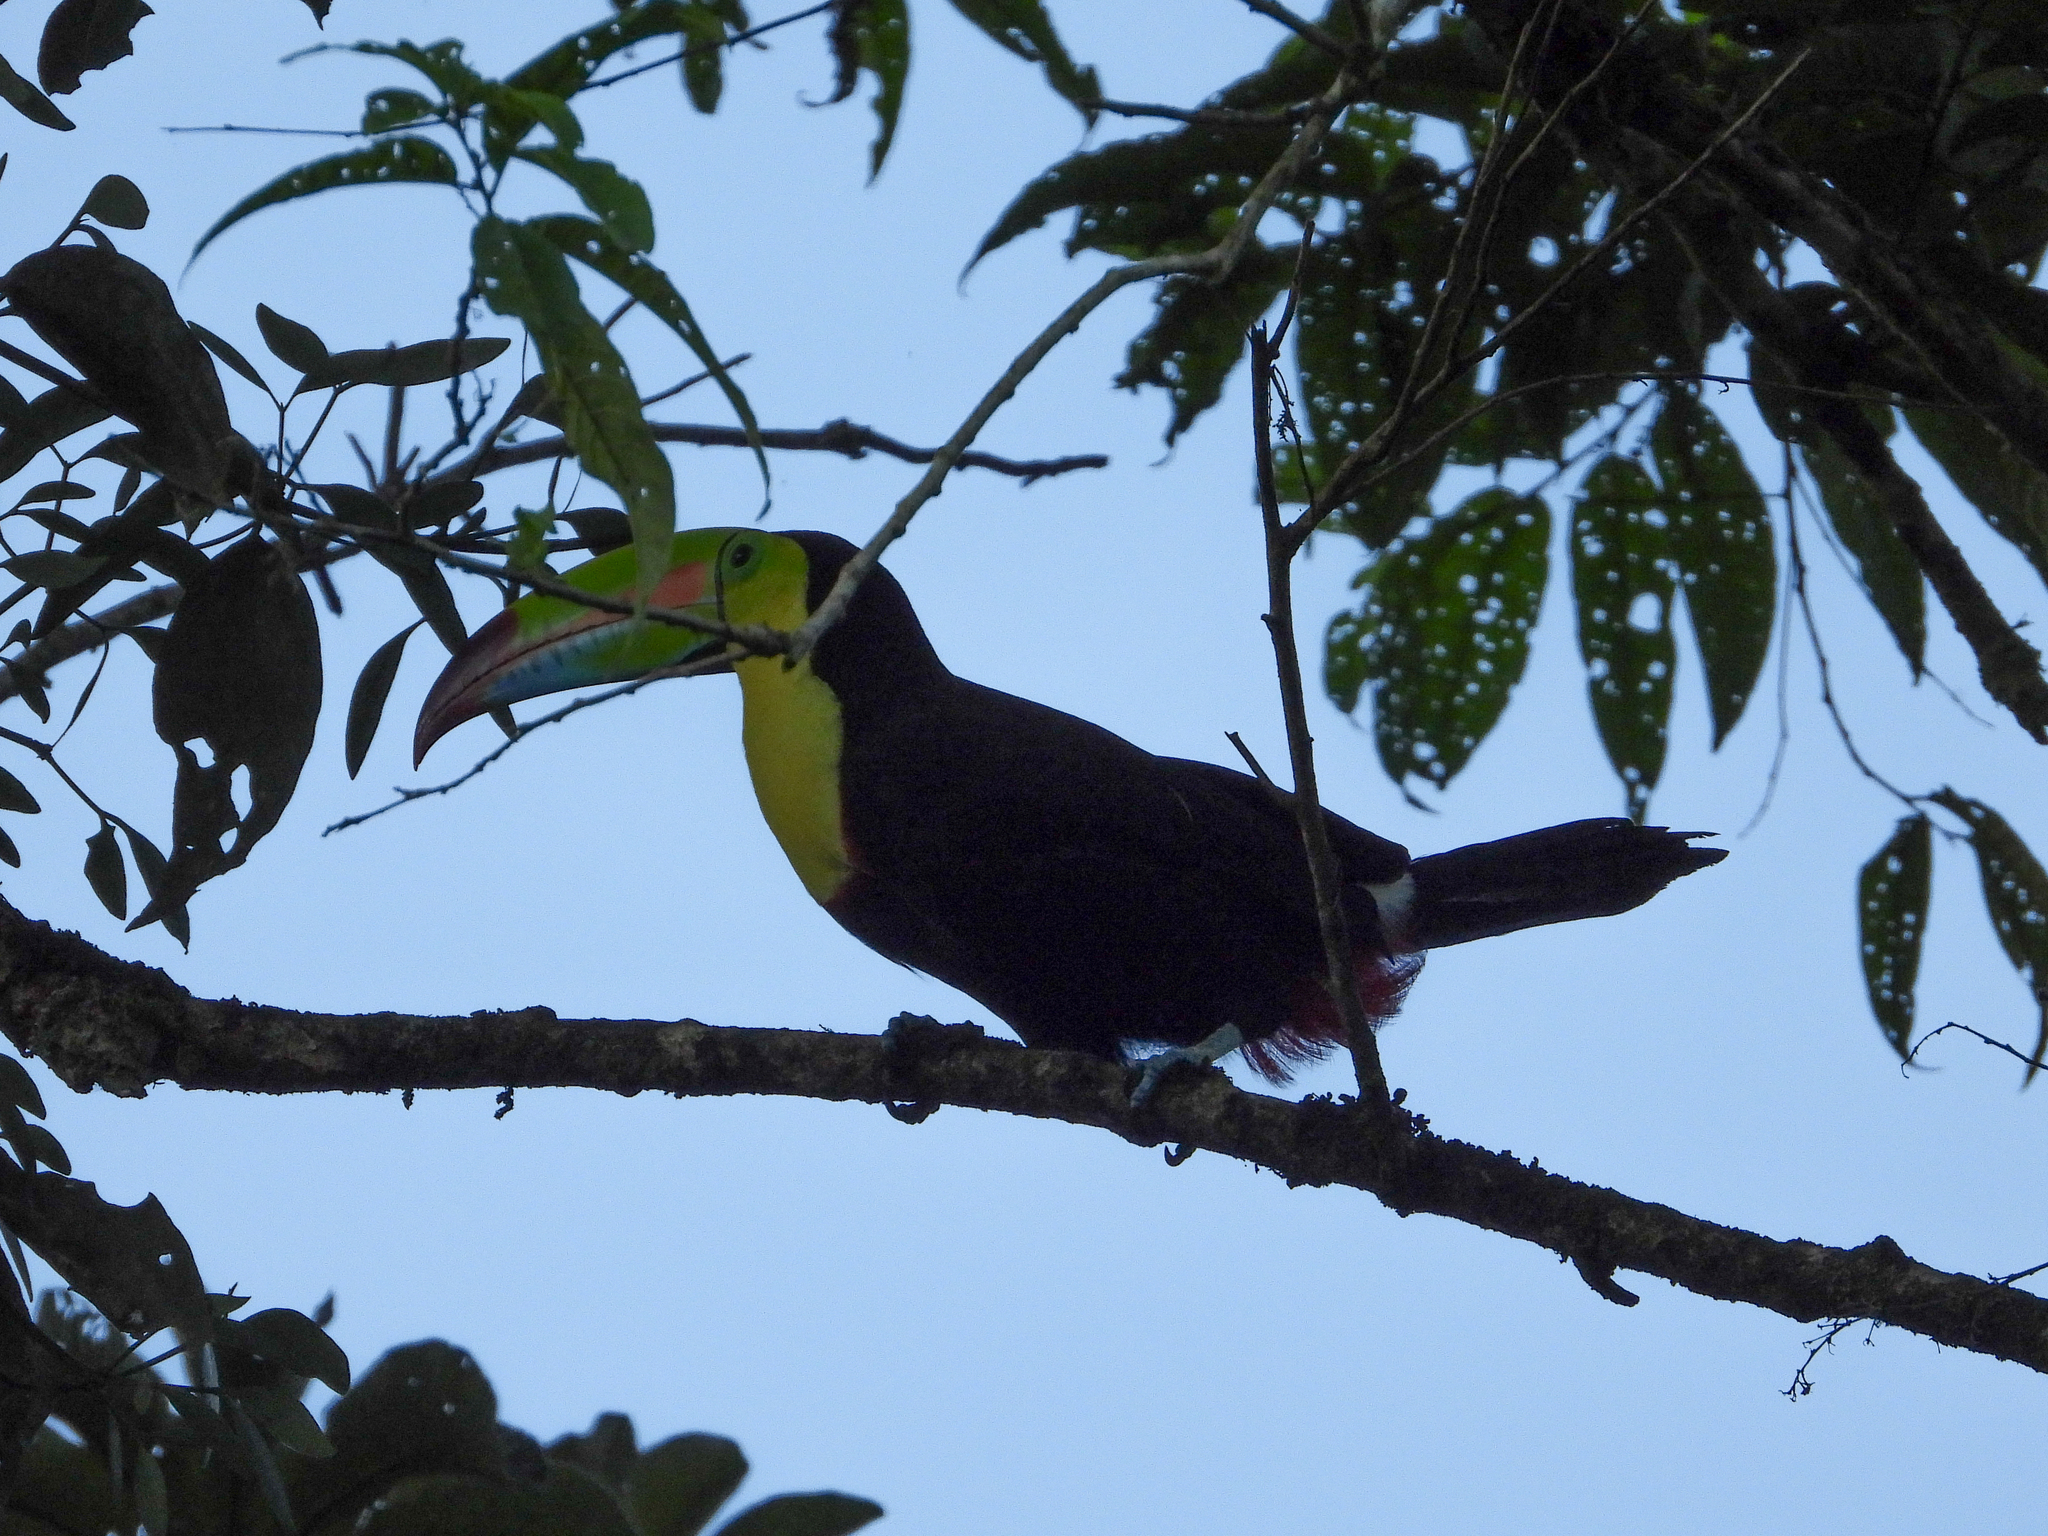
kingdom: Animalia
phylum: Chordata
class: Aves
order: Piciformes
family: Ramphastidae
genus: Ramphastos
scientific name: Ramphastos sulfuratus
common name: Keel-billed toucan
